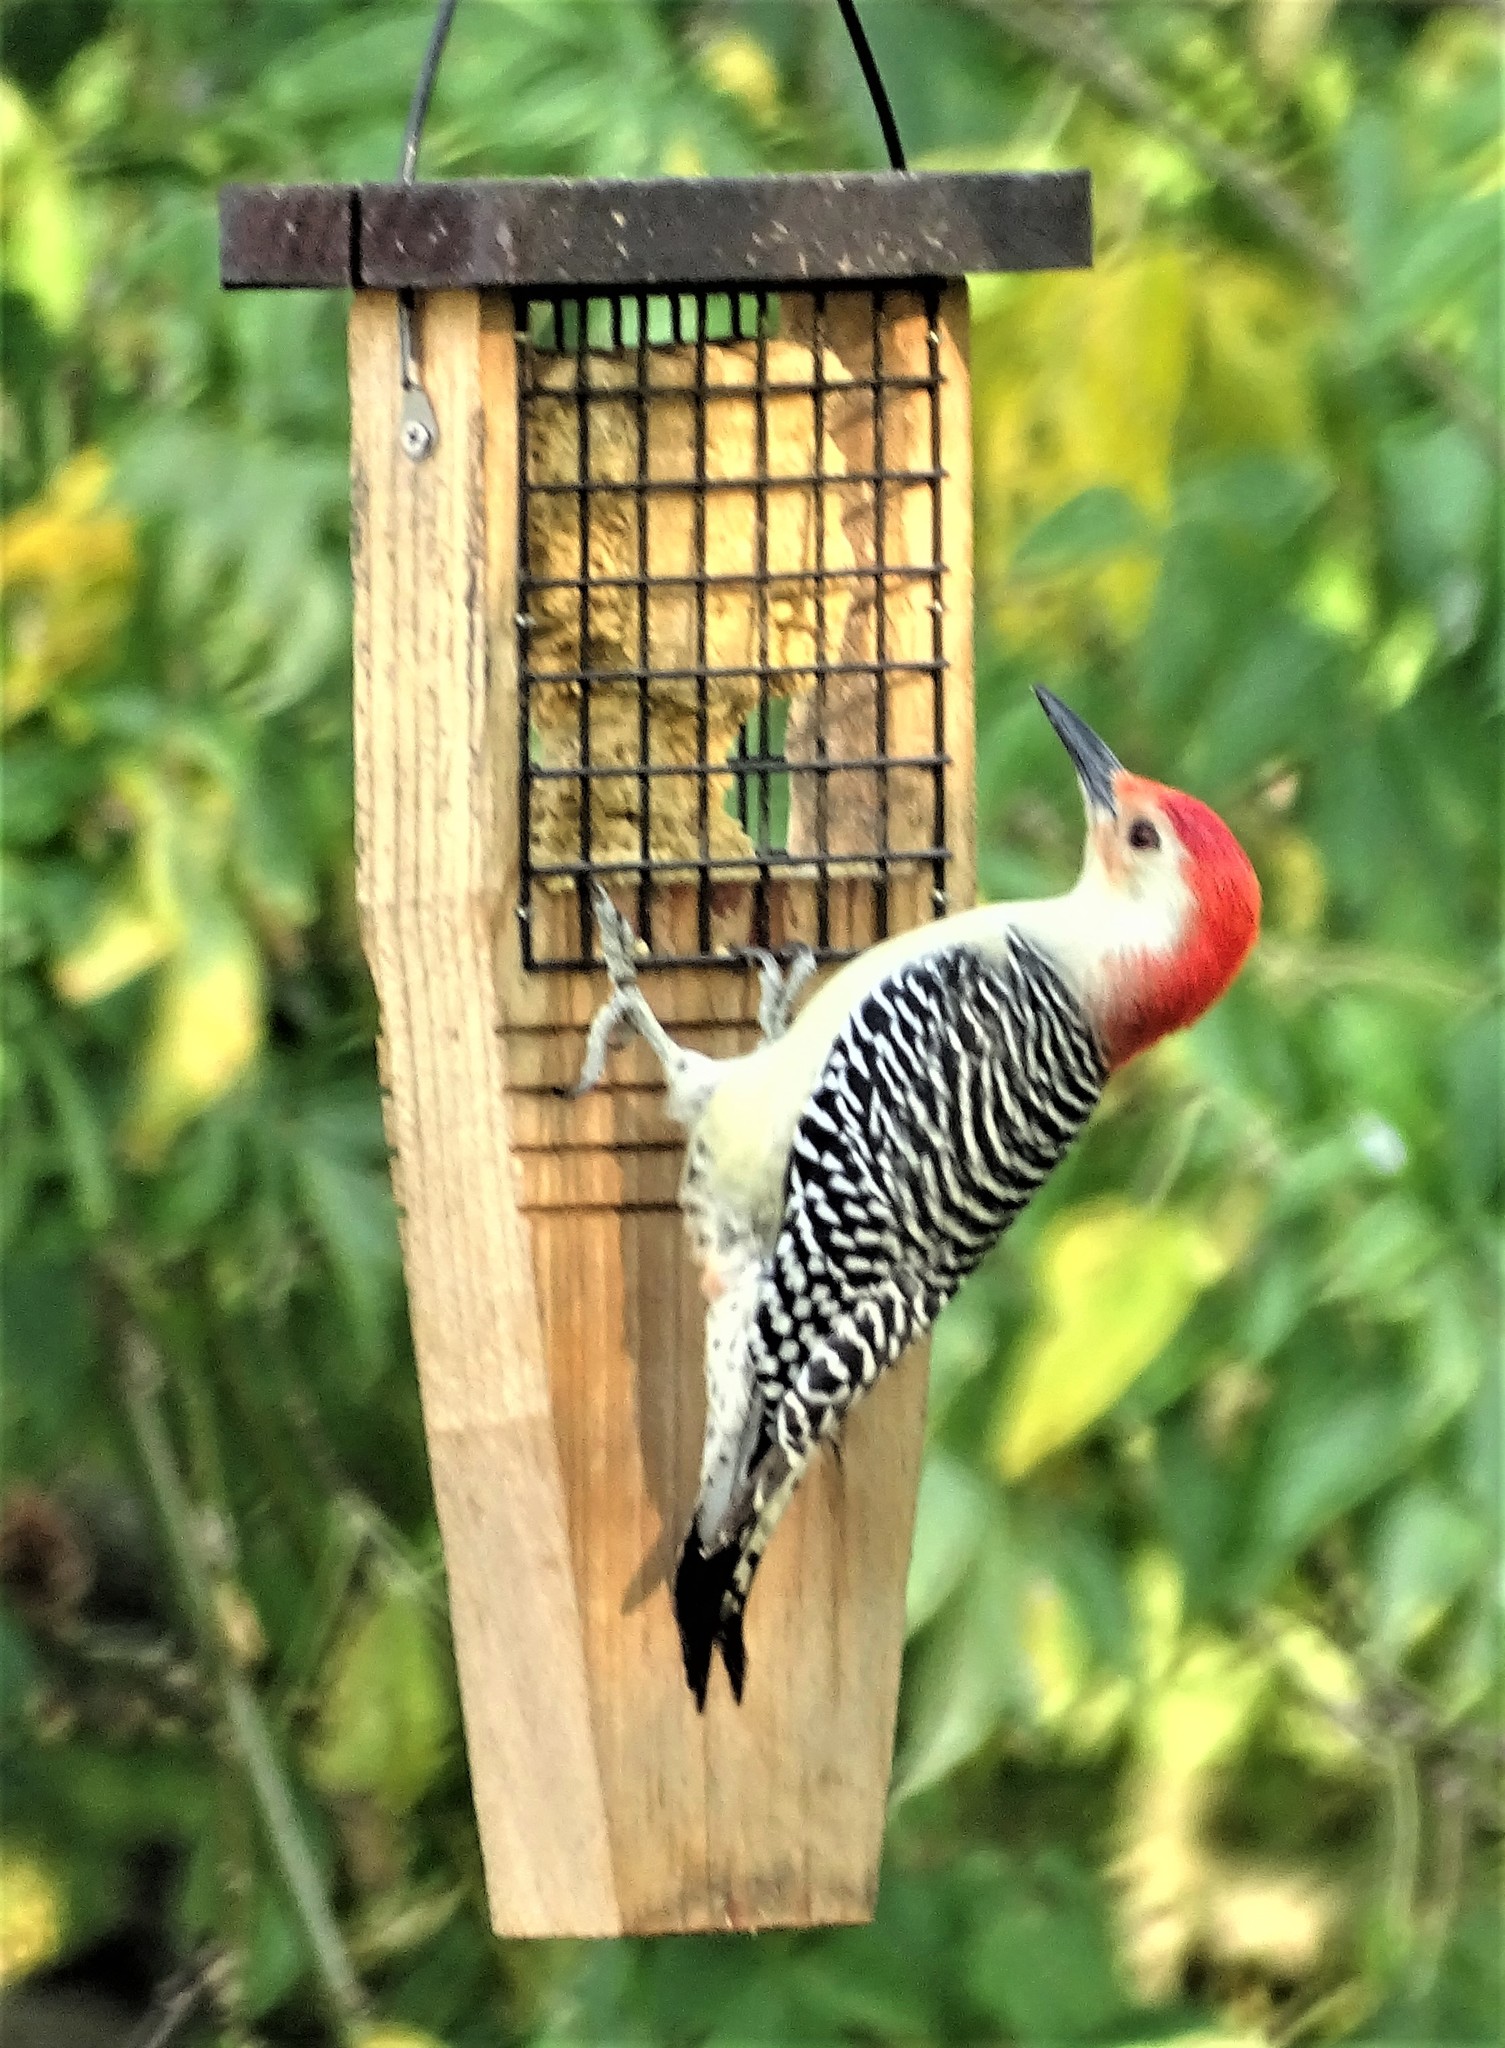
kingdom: Animalia
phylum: Chordata
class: Aves
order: Piciformes
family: Picidae
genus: Melanerpes
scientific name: Melanerpes carolinus
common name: Red-bellied woodpecker
